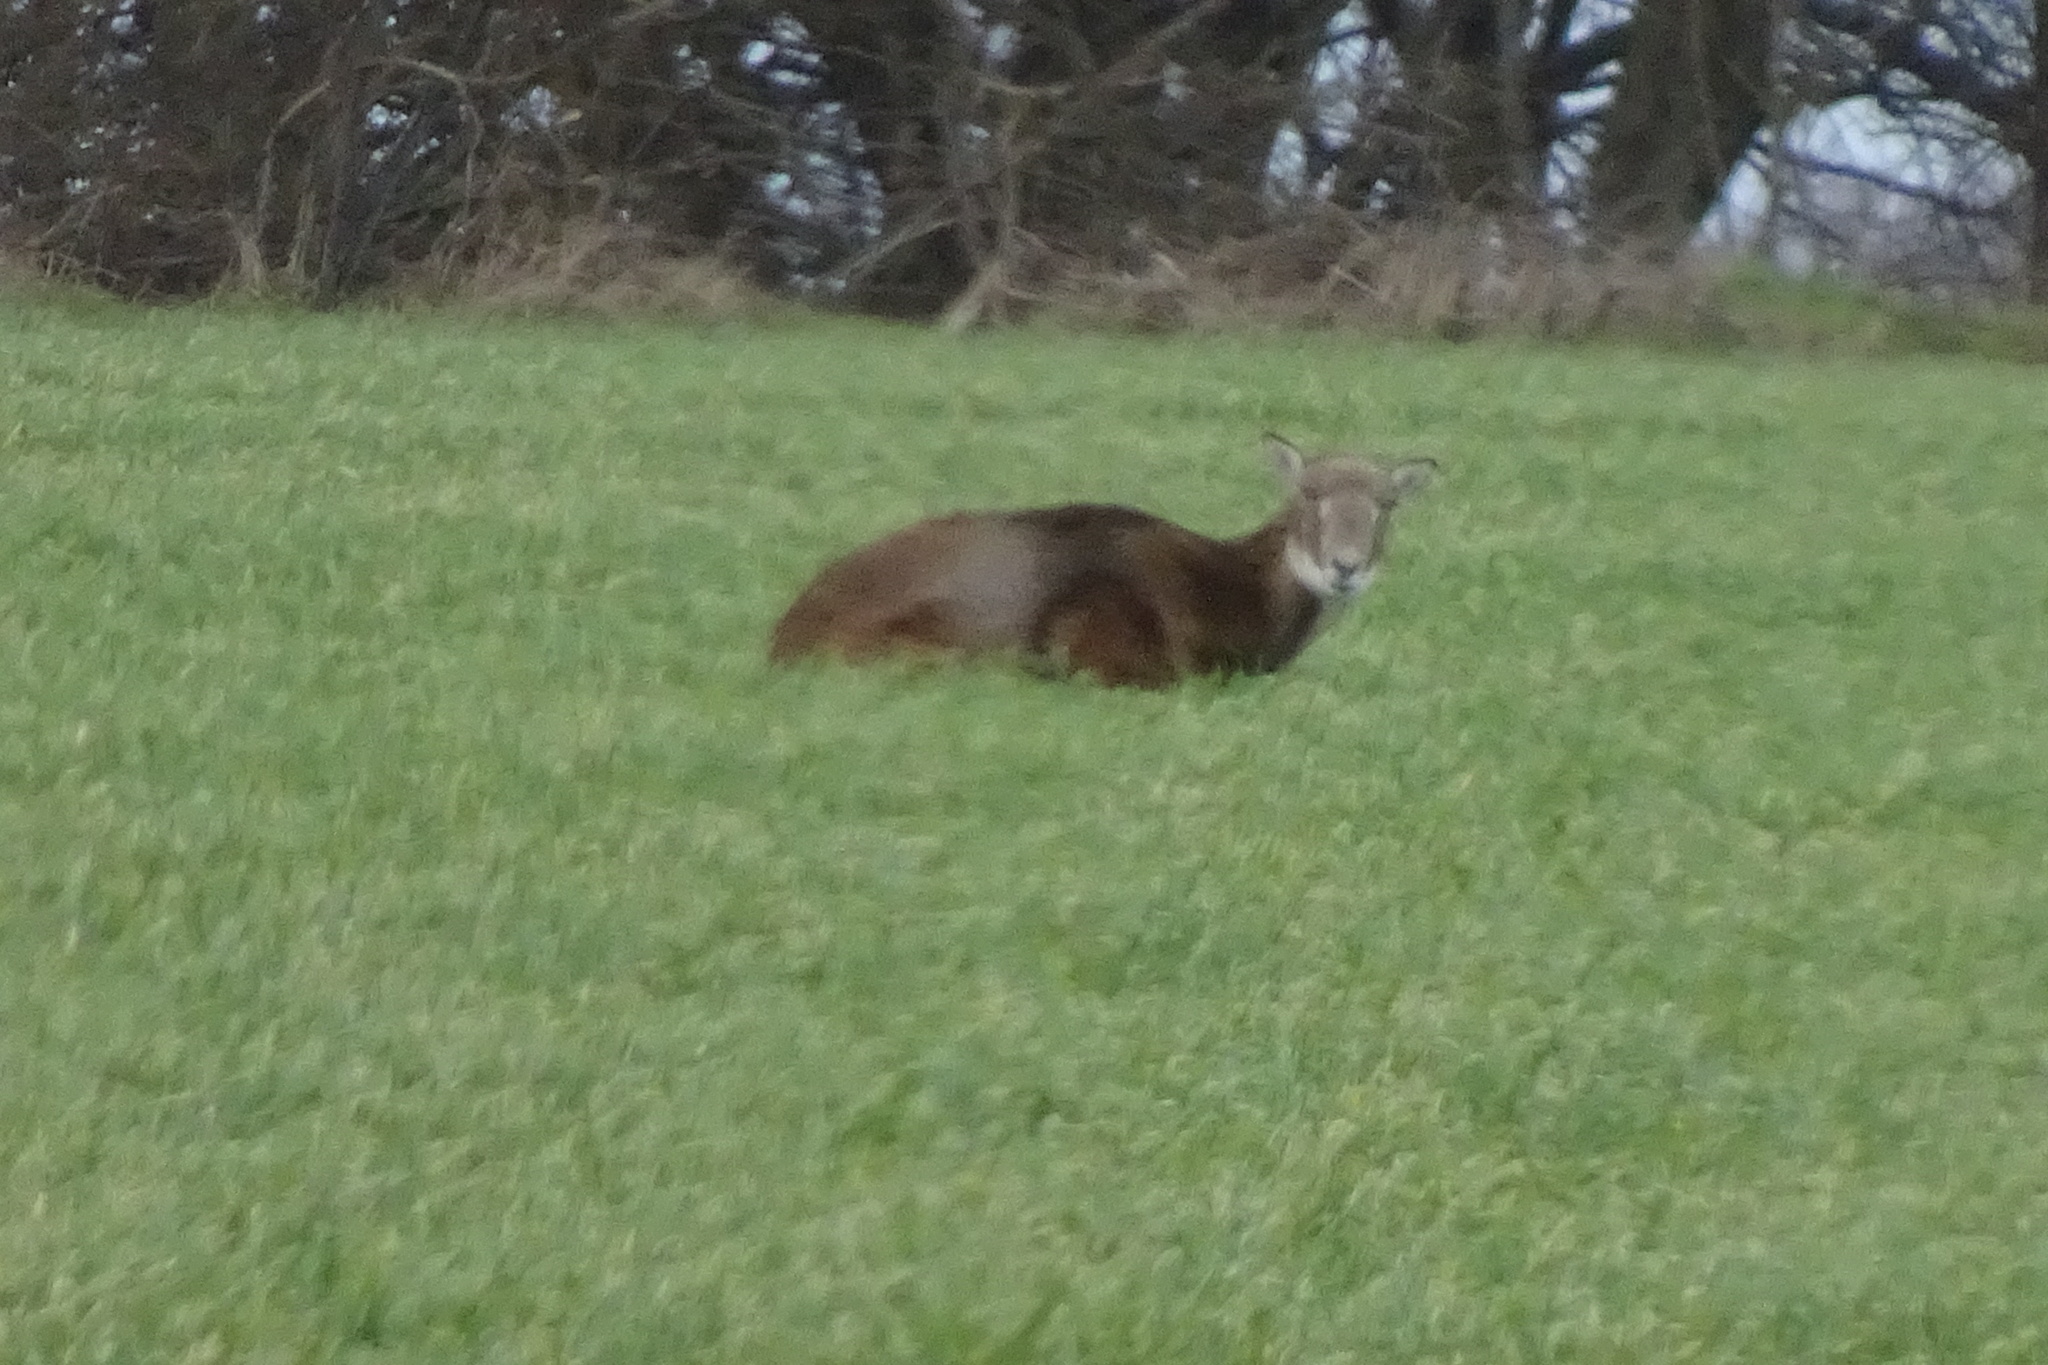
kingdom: Animalia
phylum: Chordata
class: Mammalia
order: Artiodactyla
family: Bovidae
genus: Ovis
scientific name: Ovis aries
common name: Domestic sheep
